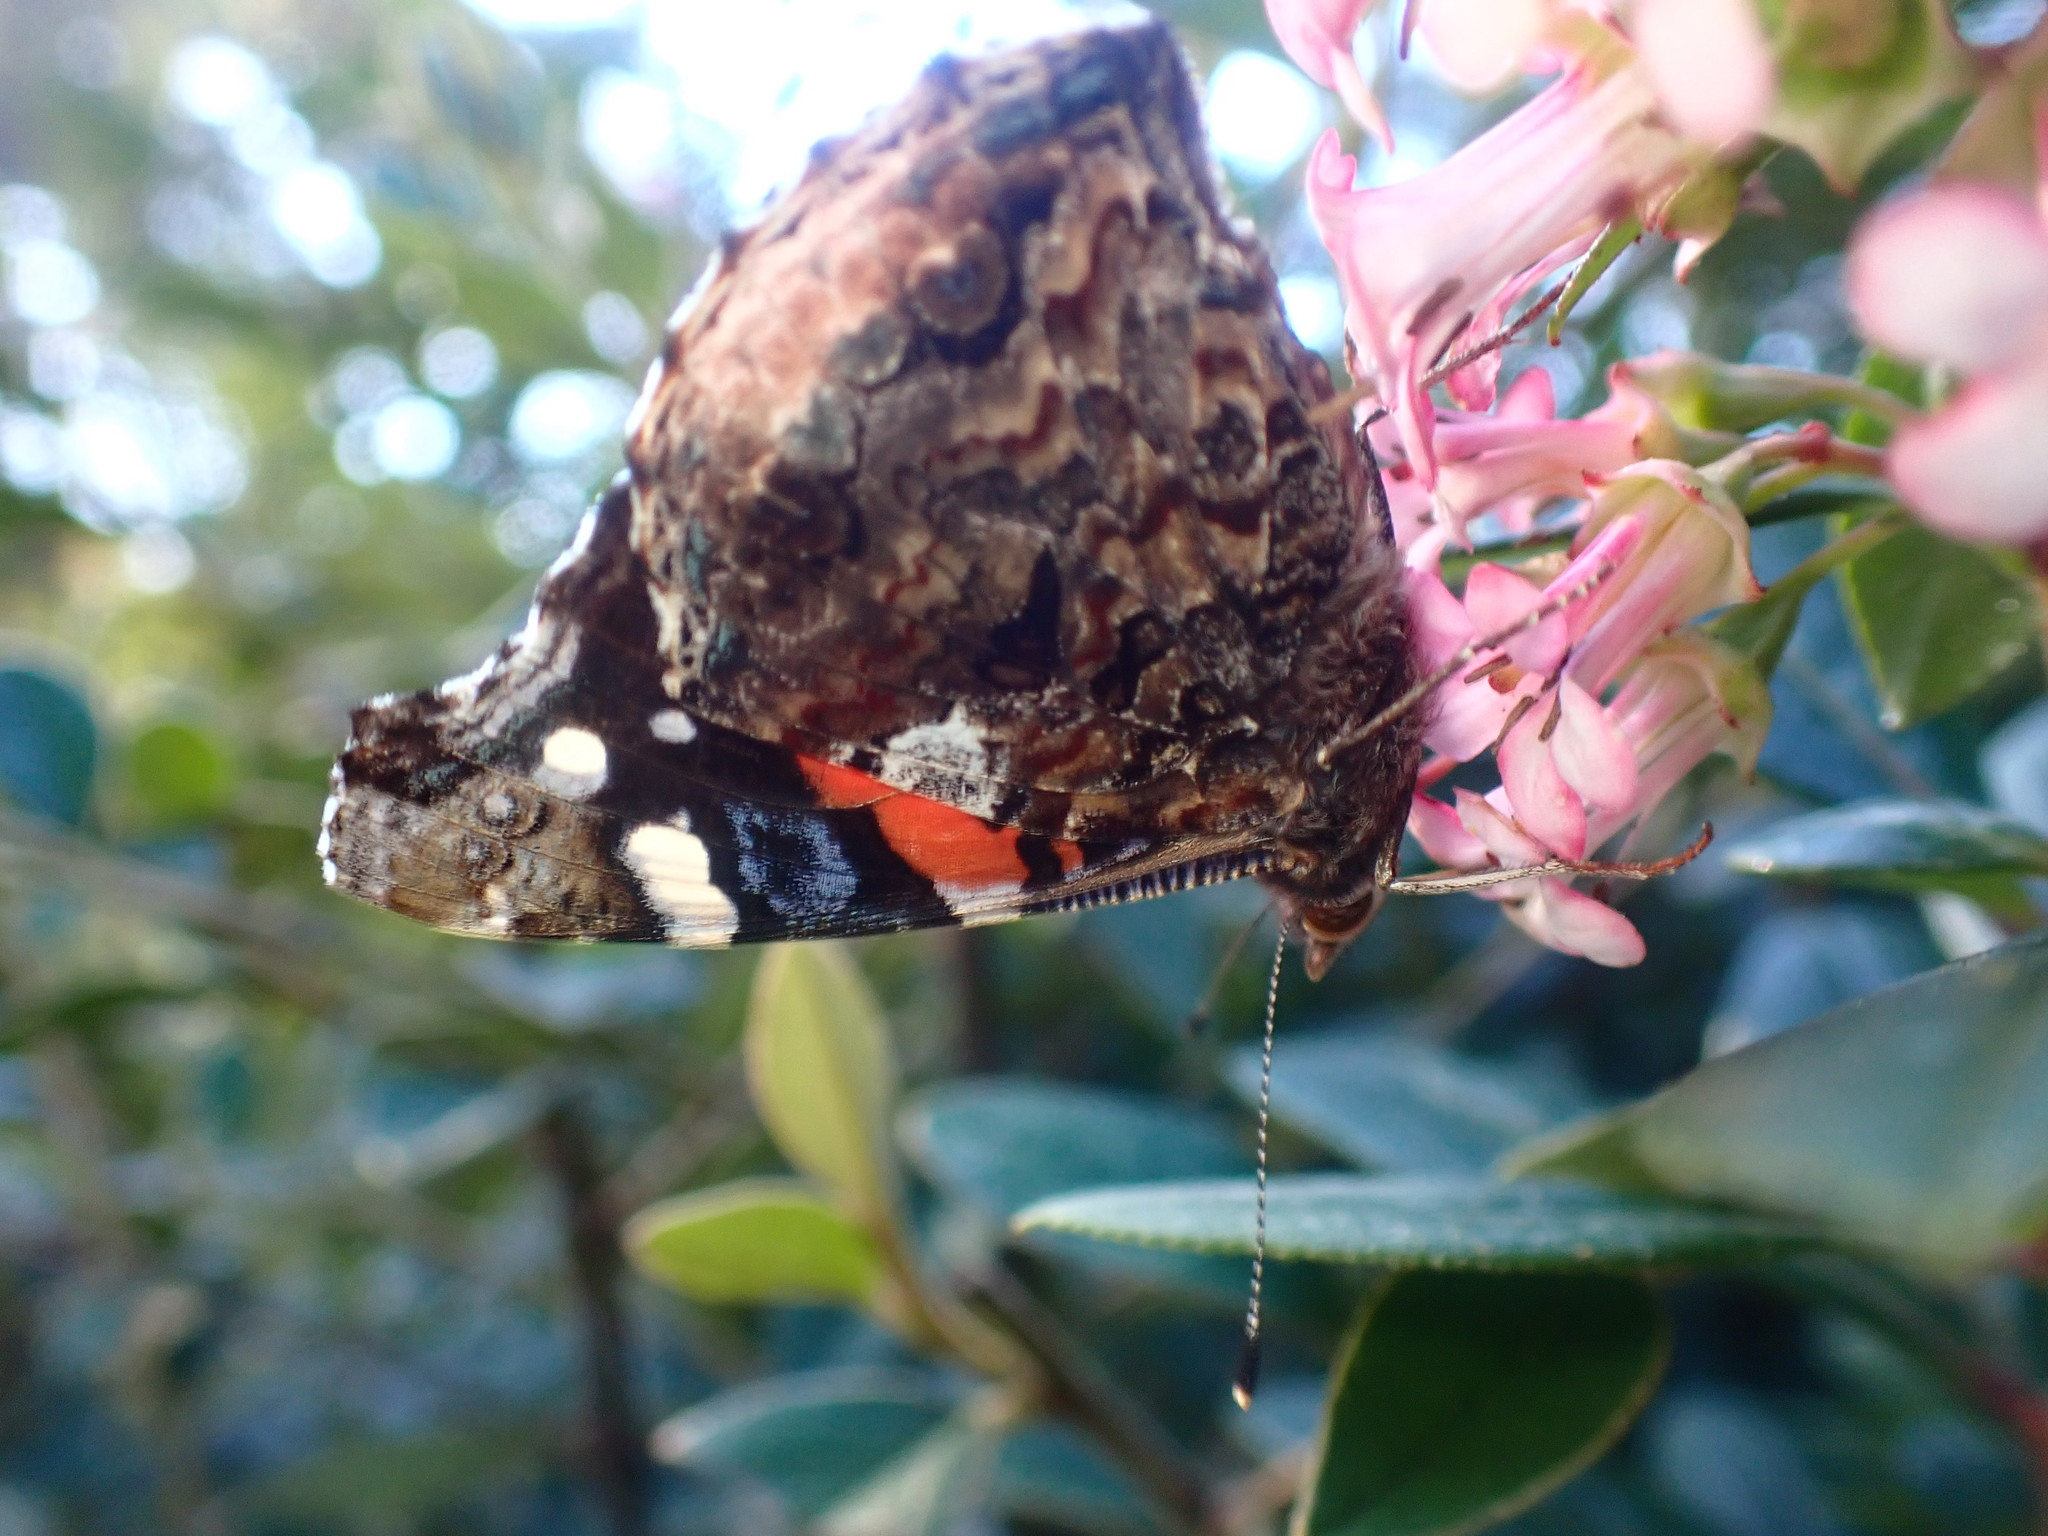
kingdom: Animalia
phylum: Arthropoda
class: Insecta
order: Lepidoptera
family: Nymphalidae
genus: Vanessa
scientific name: Vanessa atalanta
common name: Red admiral
